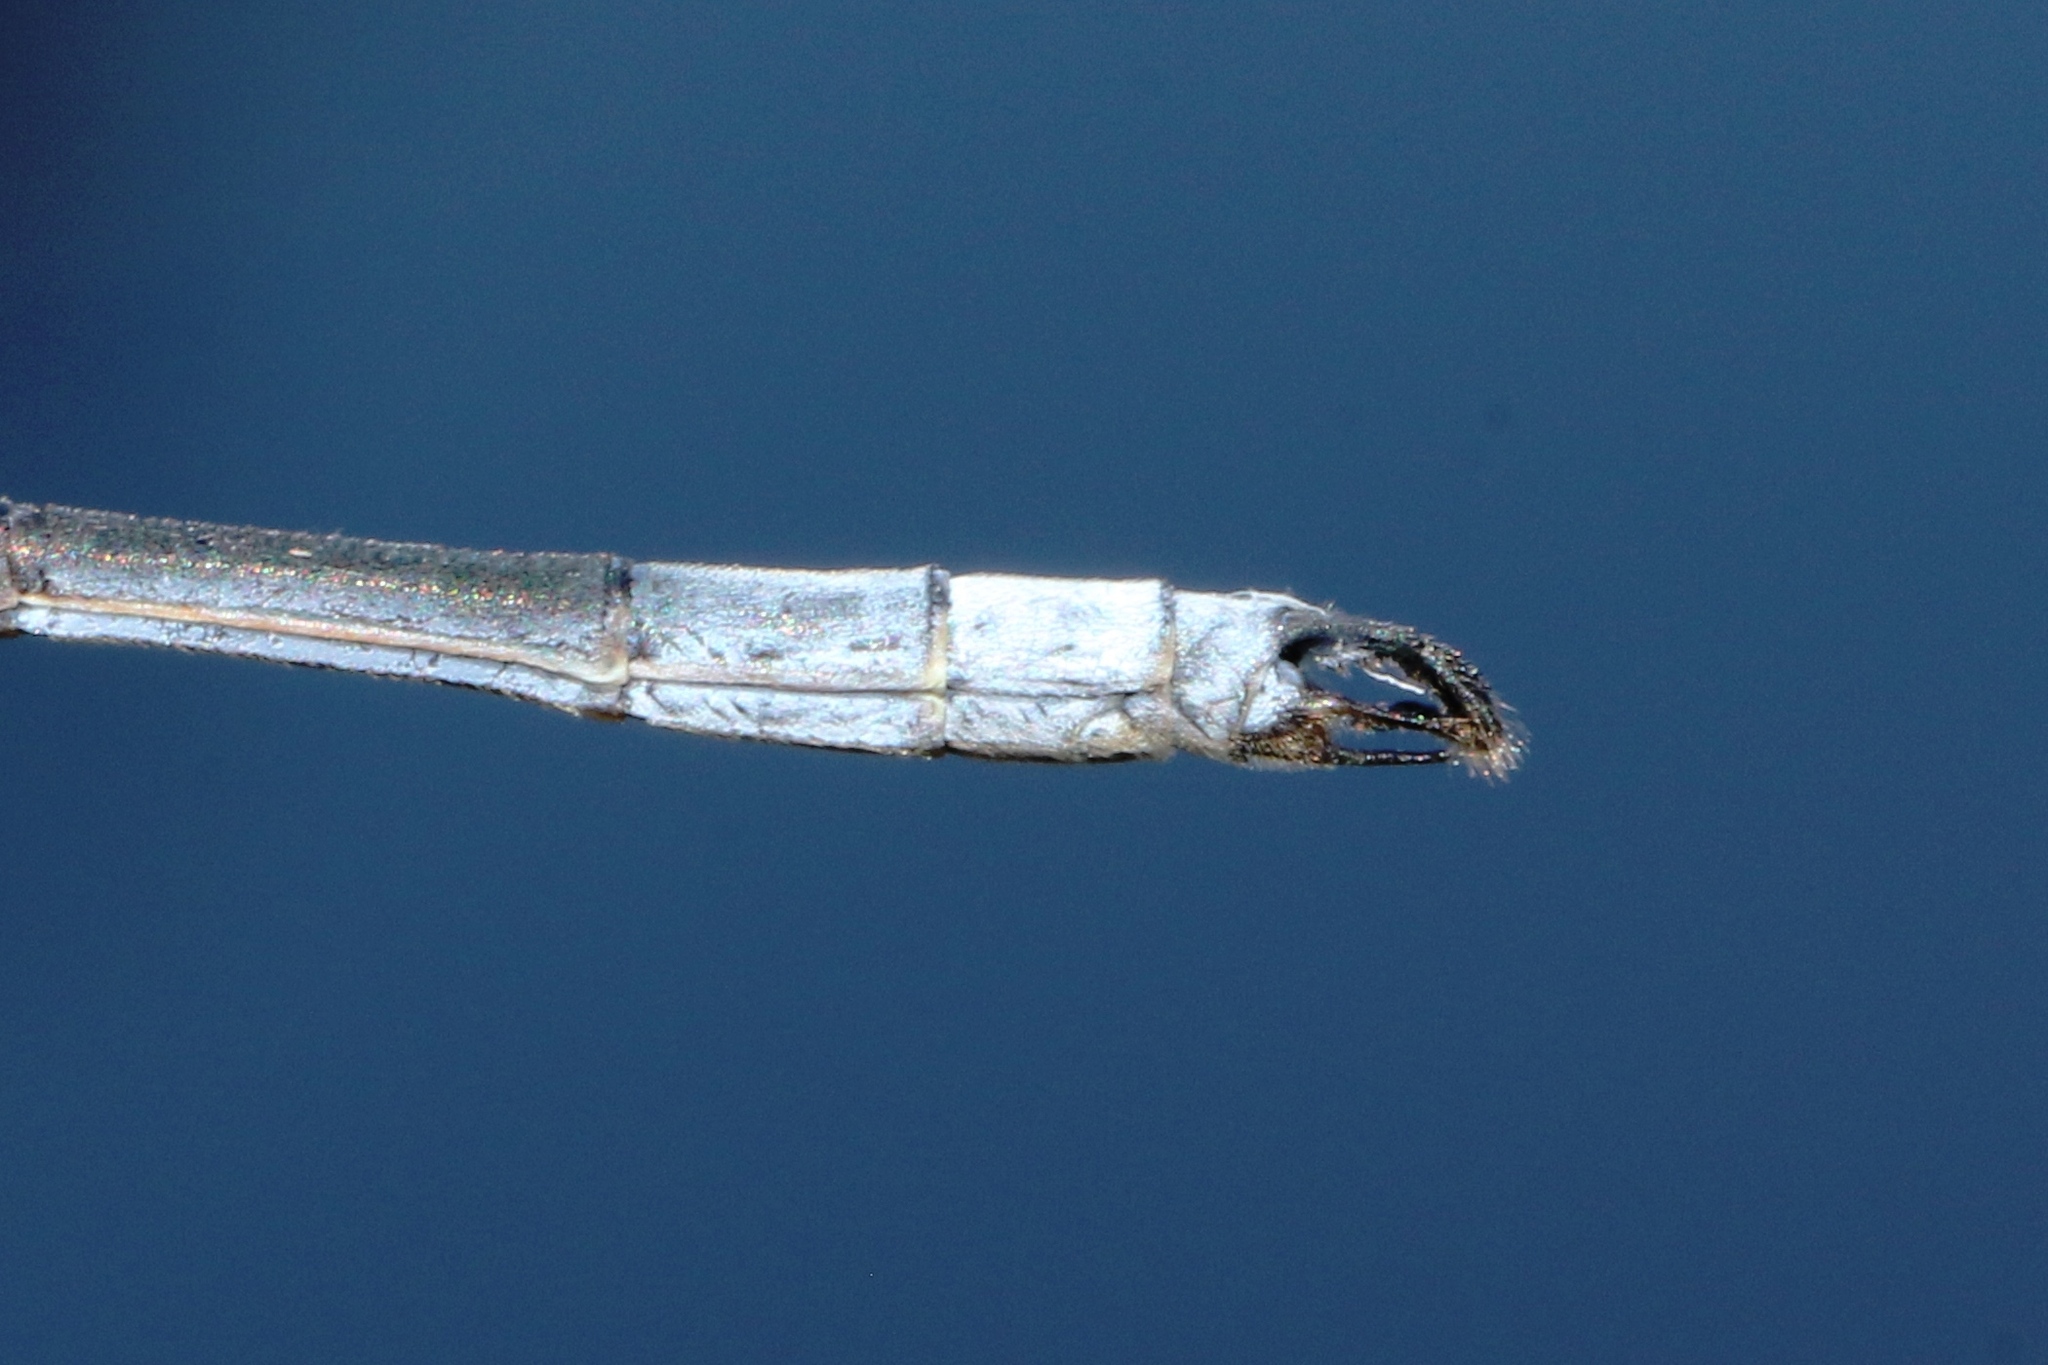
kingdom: Animalia
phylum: Arthropoda
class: Insecta
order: Odonata
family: Lestidae
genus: Lestes
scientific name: Lestes vigilax
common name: Swamp spreadwing
